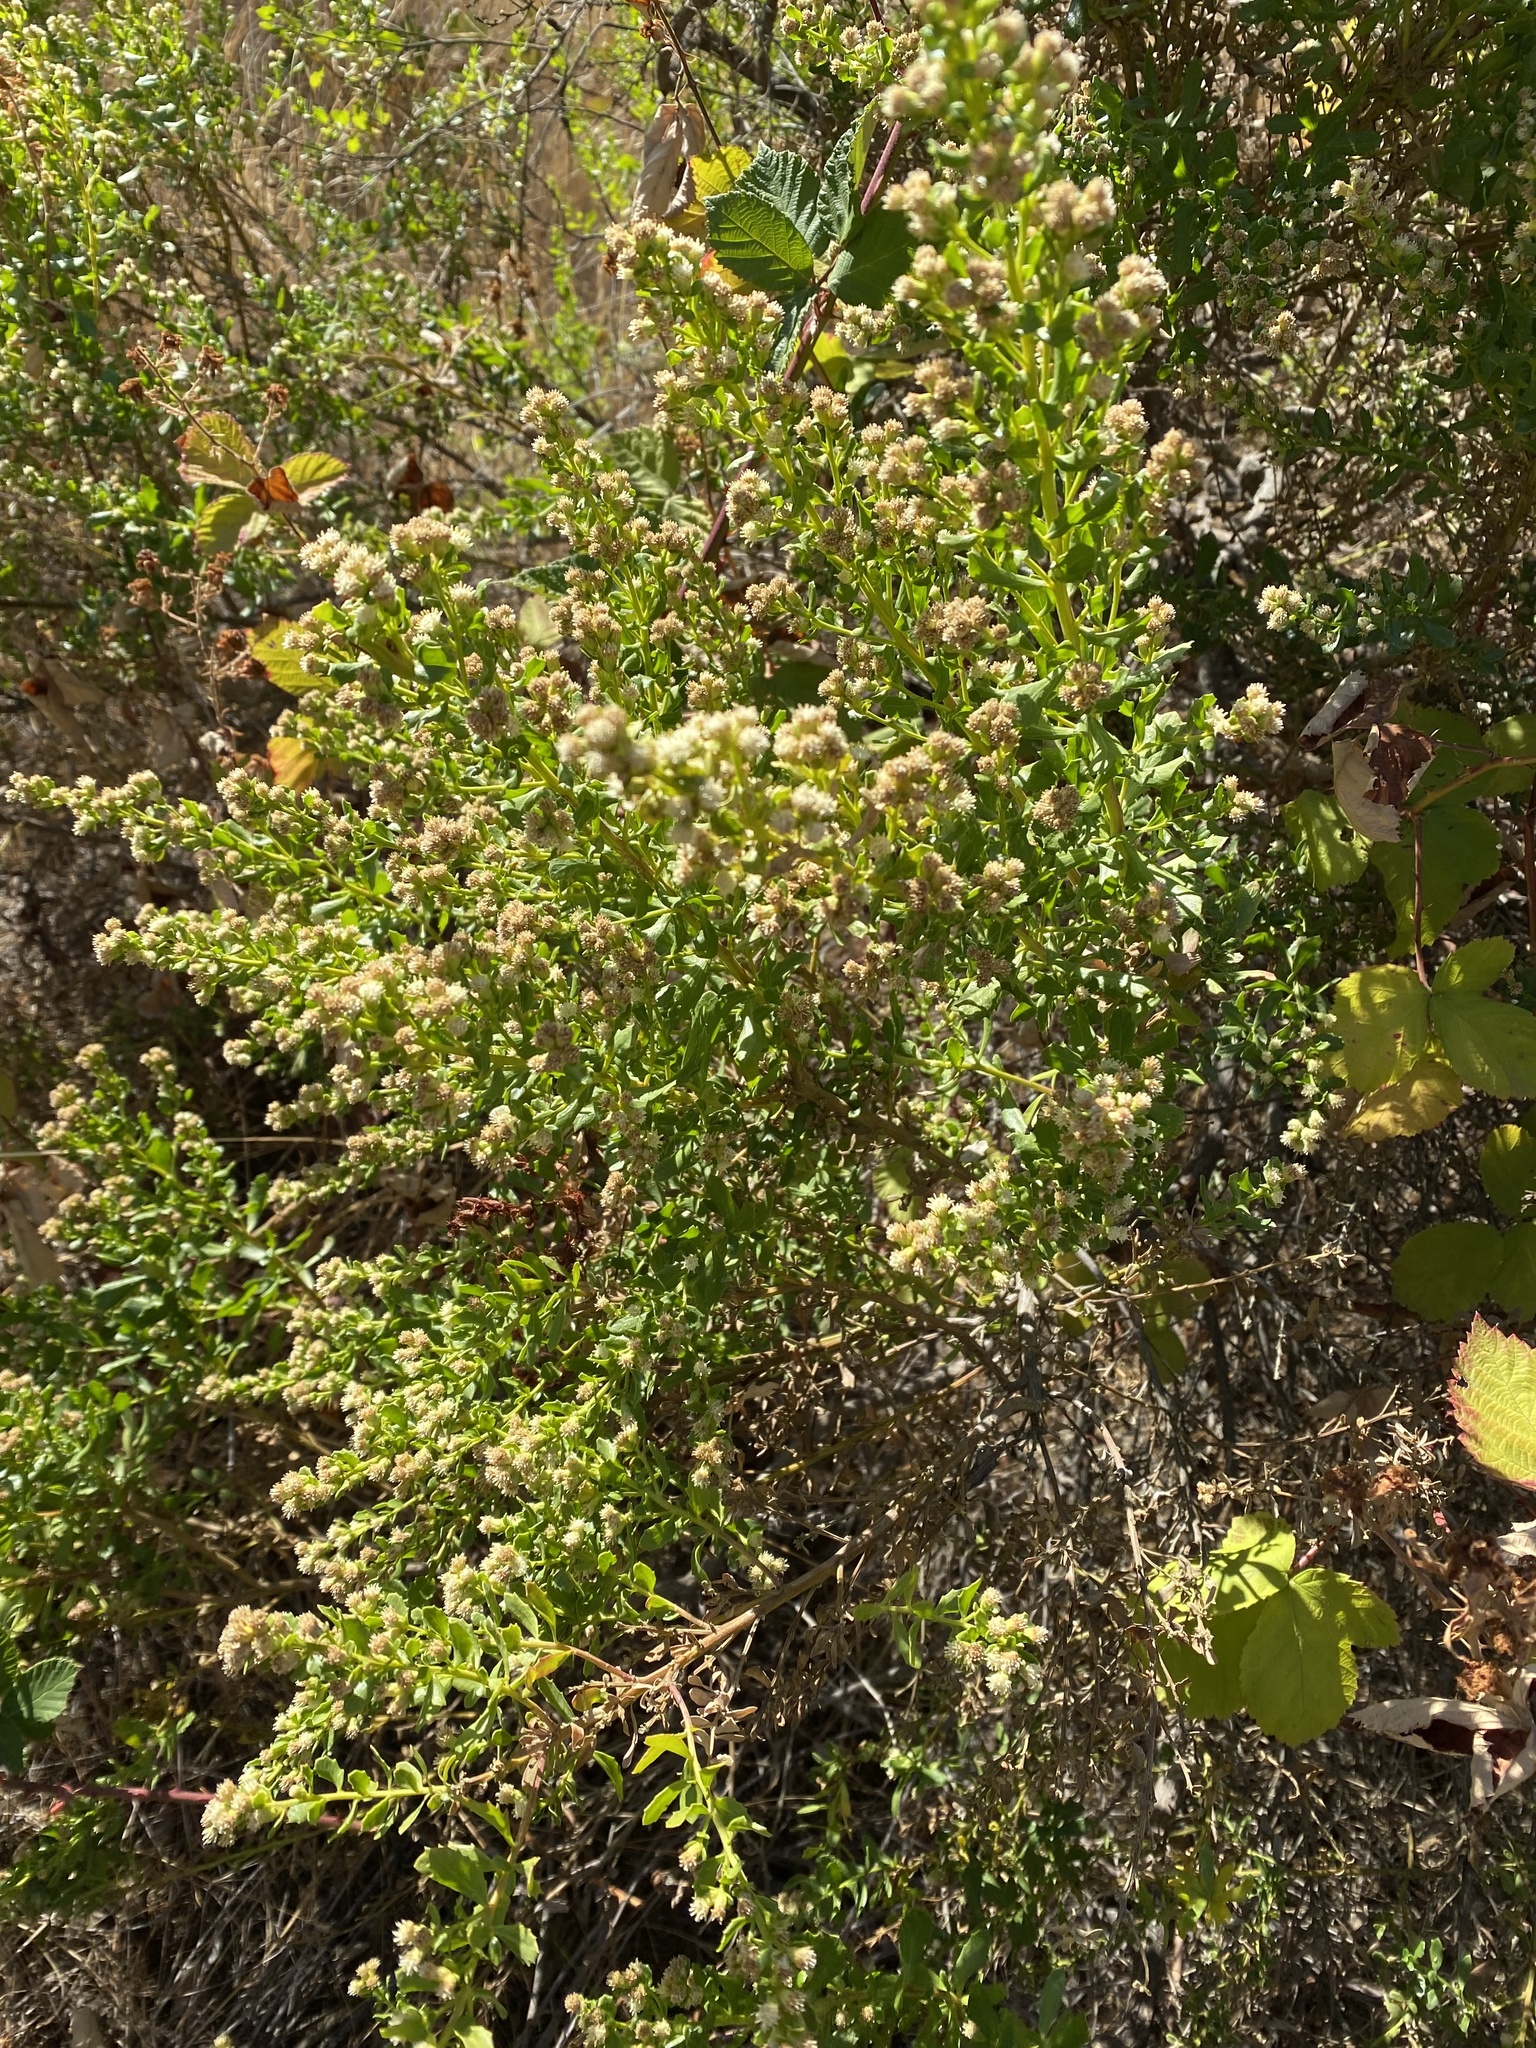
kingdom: Plantae
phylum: Tracheophyta
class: Magnoliopsida
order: Asterales
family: Asteraceae
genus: Baccharis
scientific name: Baccharis pilularis
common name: Coyotebrush
